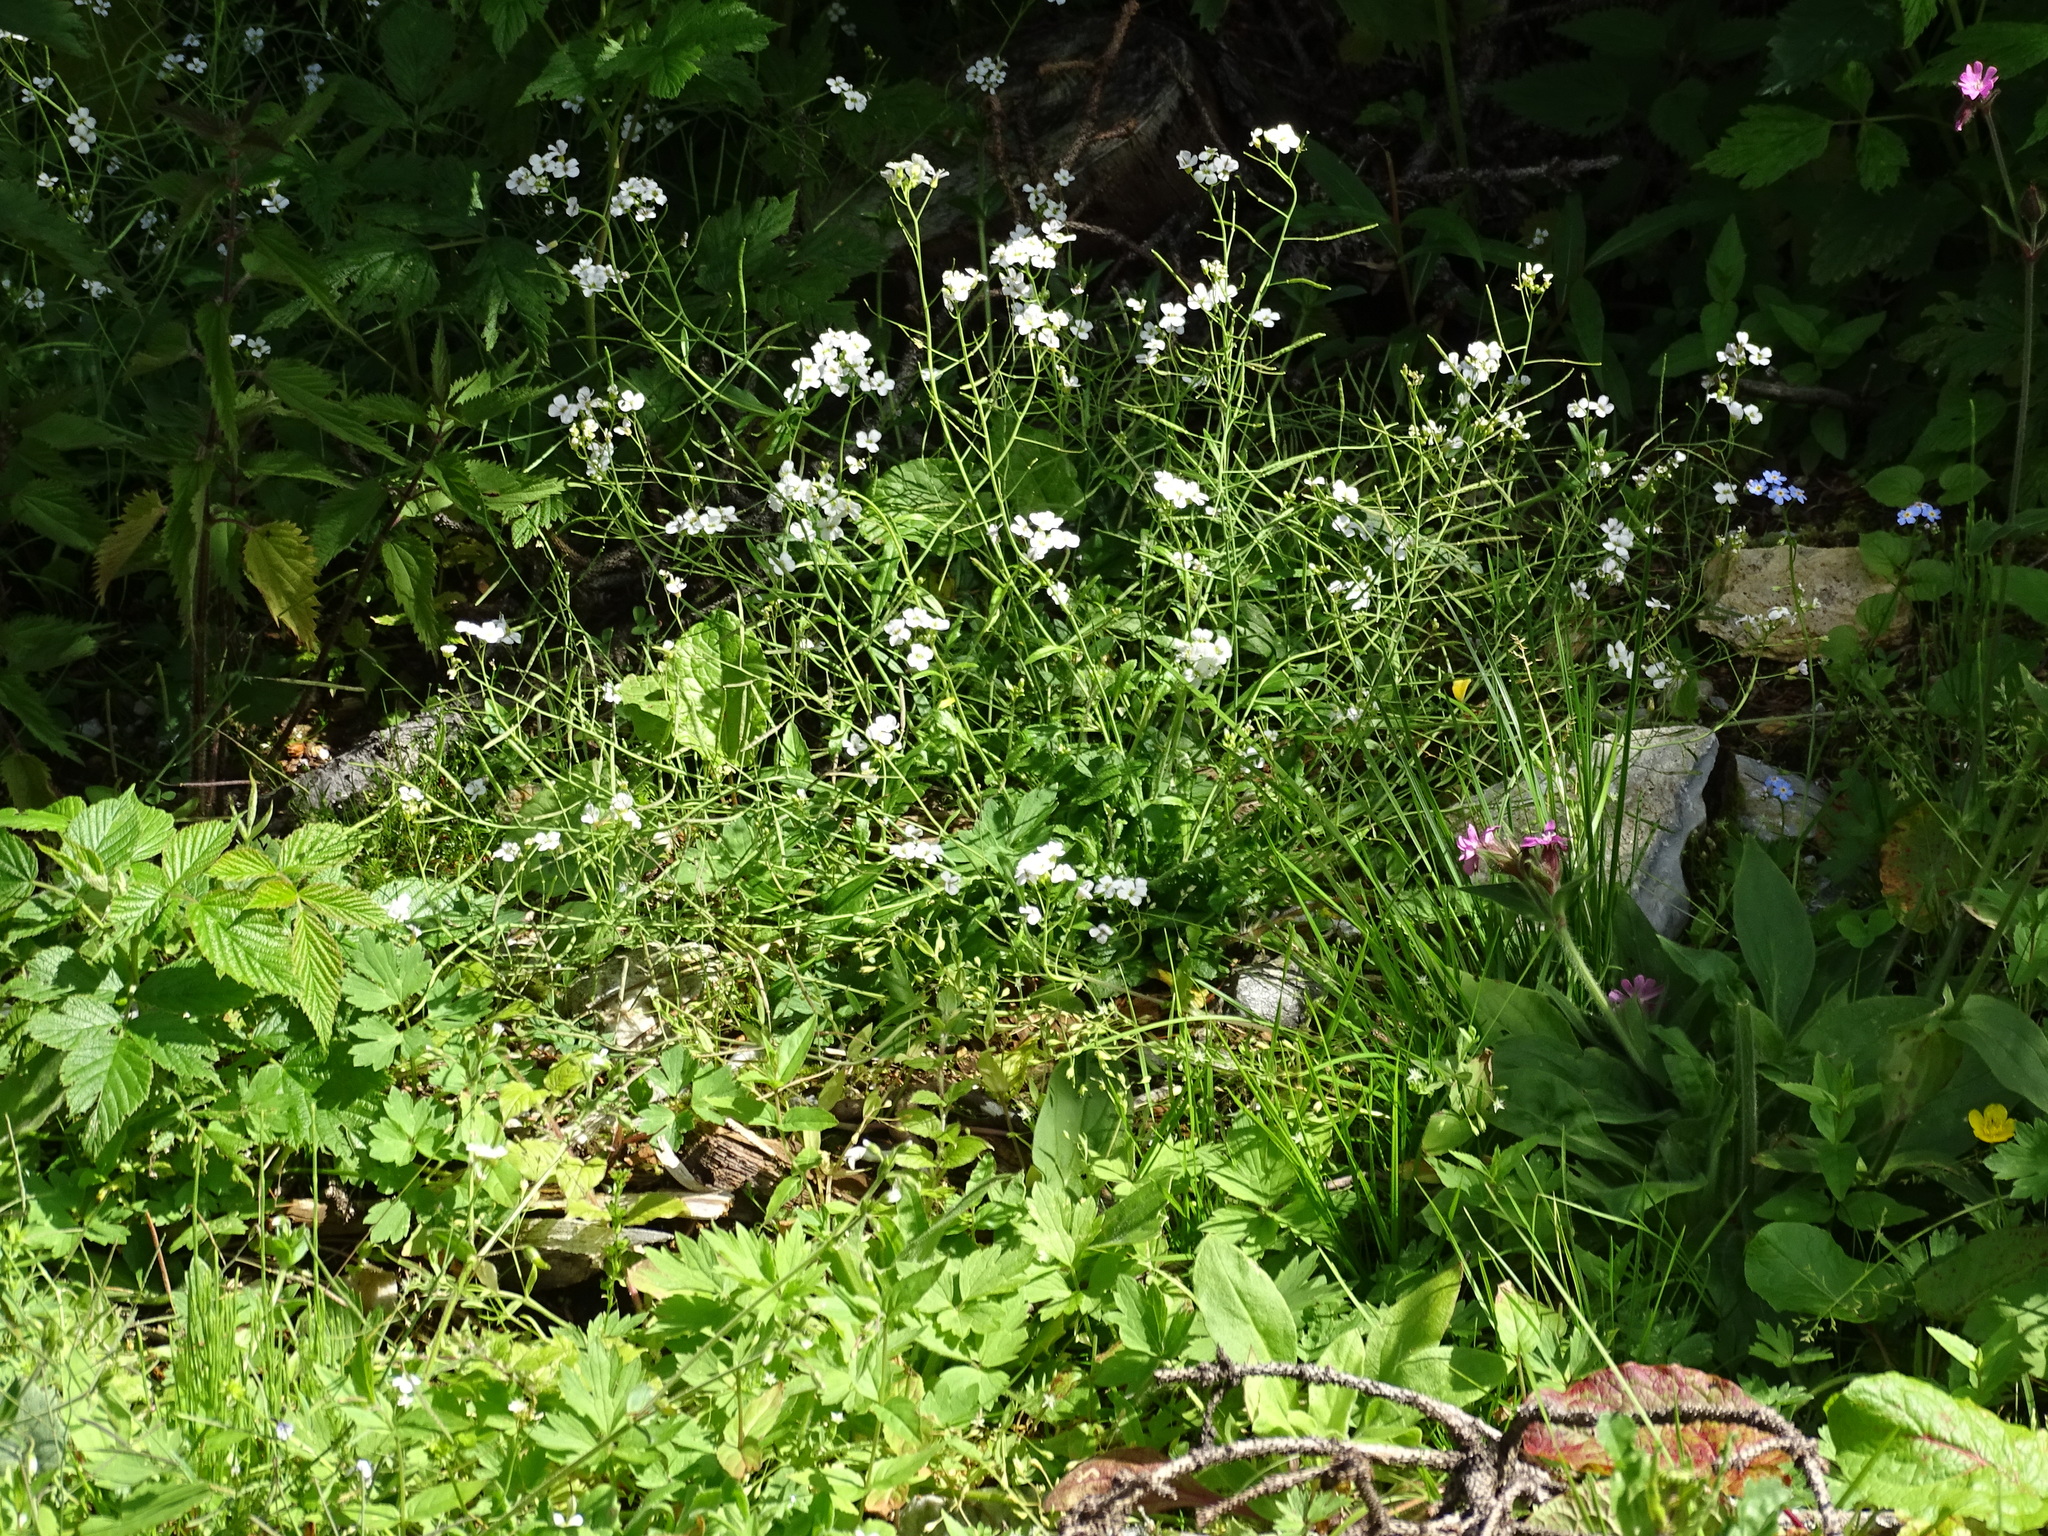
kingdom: Plantae
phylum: Tracheophyta
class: Magnoliopsida
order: Brassicales
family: Brassicaceae
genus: Arabidopsis
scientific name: Arabidopsis arenosa
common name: Sand rock-cress
